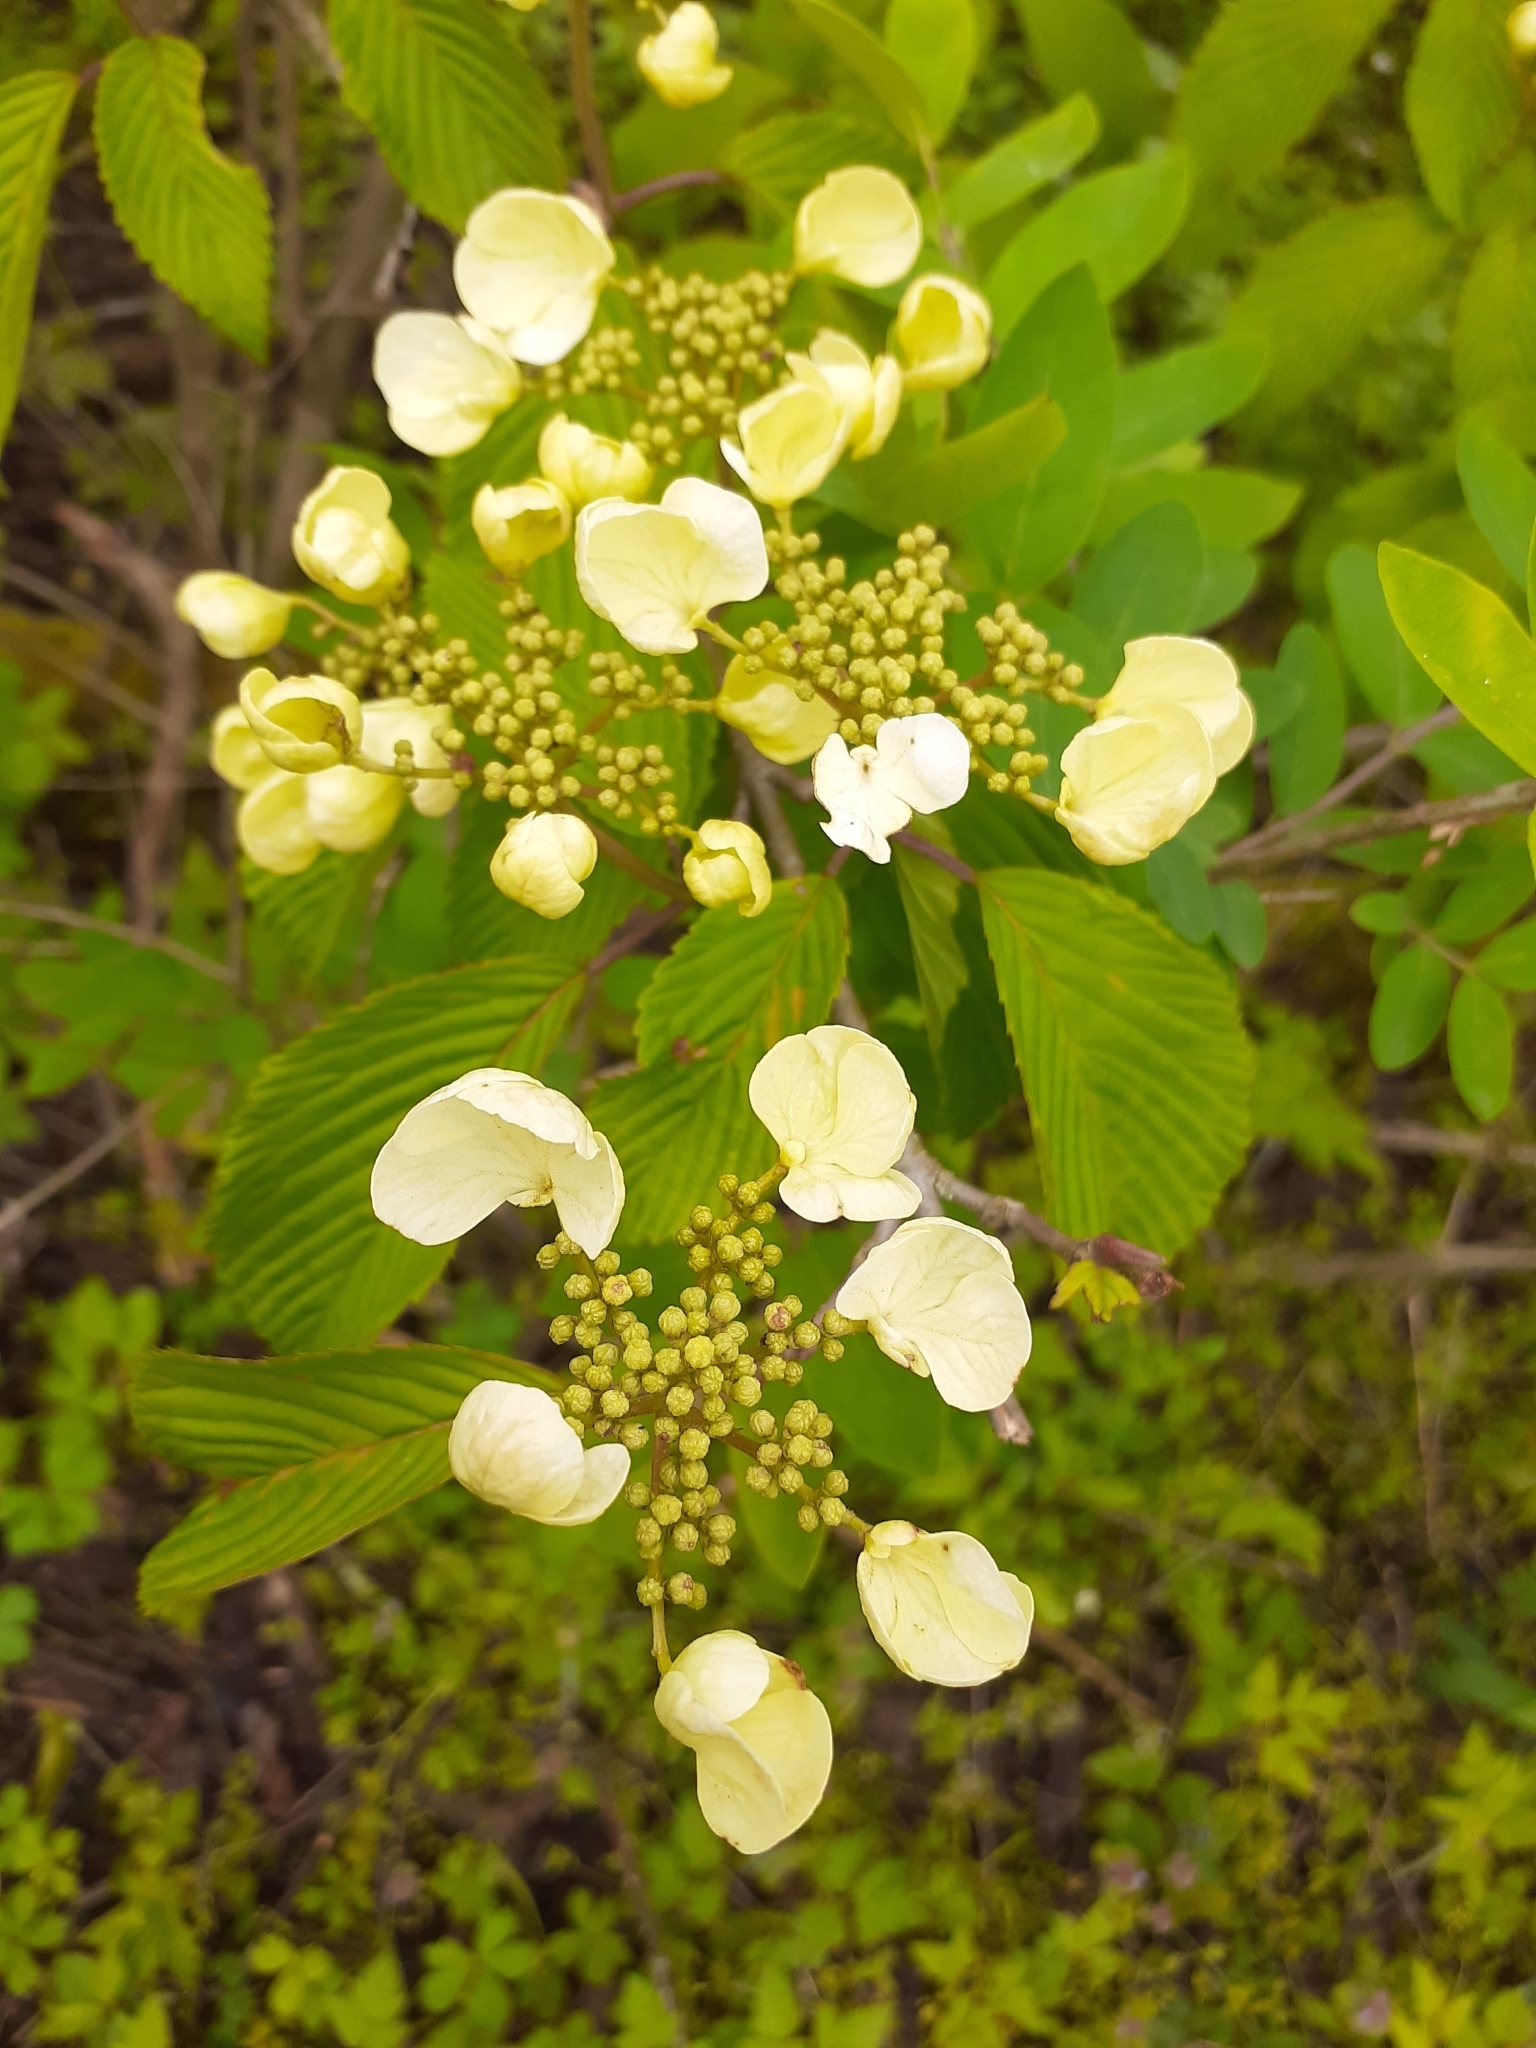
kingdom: Plantae
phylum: Tracheophyta
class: Magnoliopsida
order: Dipsacales
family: Viburnaceae
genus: Viburnum
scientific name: Viburnum plicatum
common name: Japanese snowball
